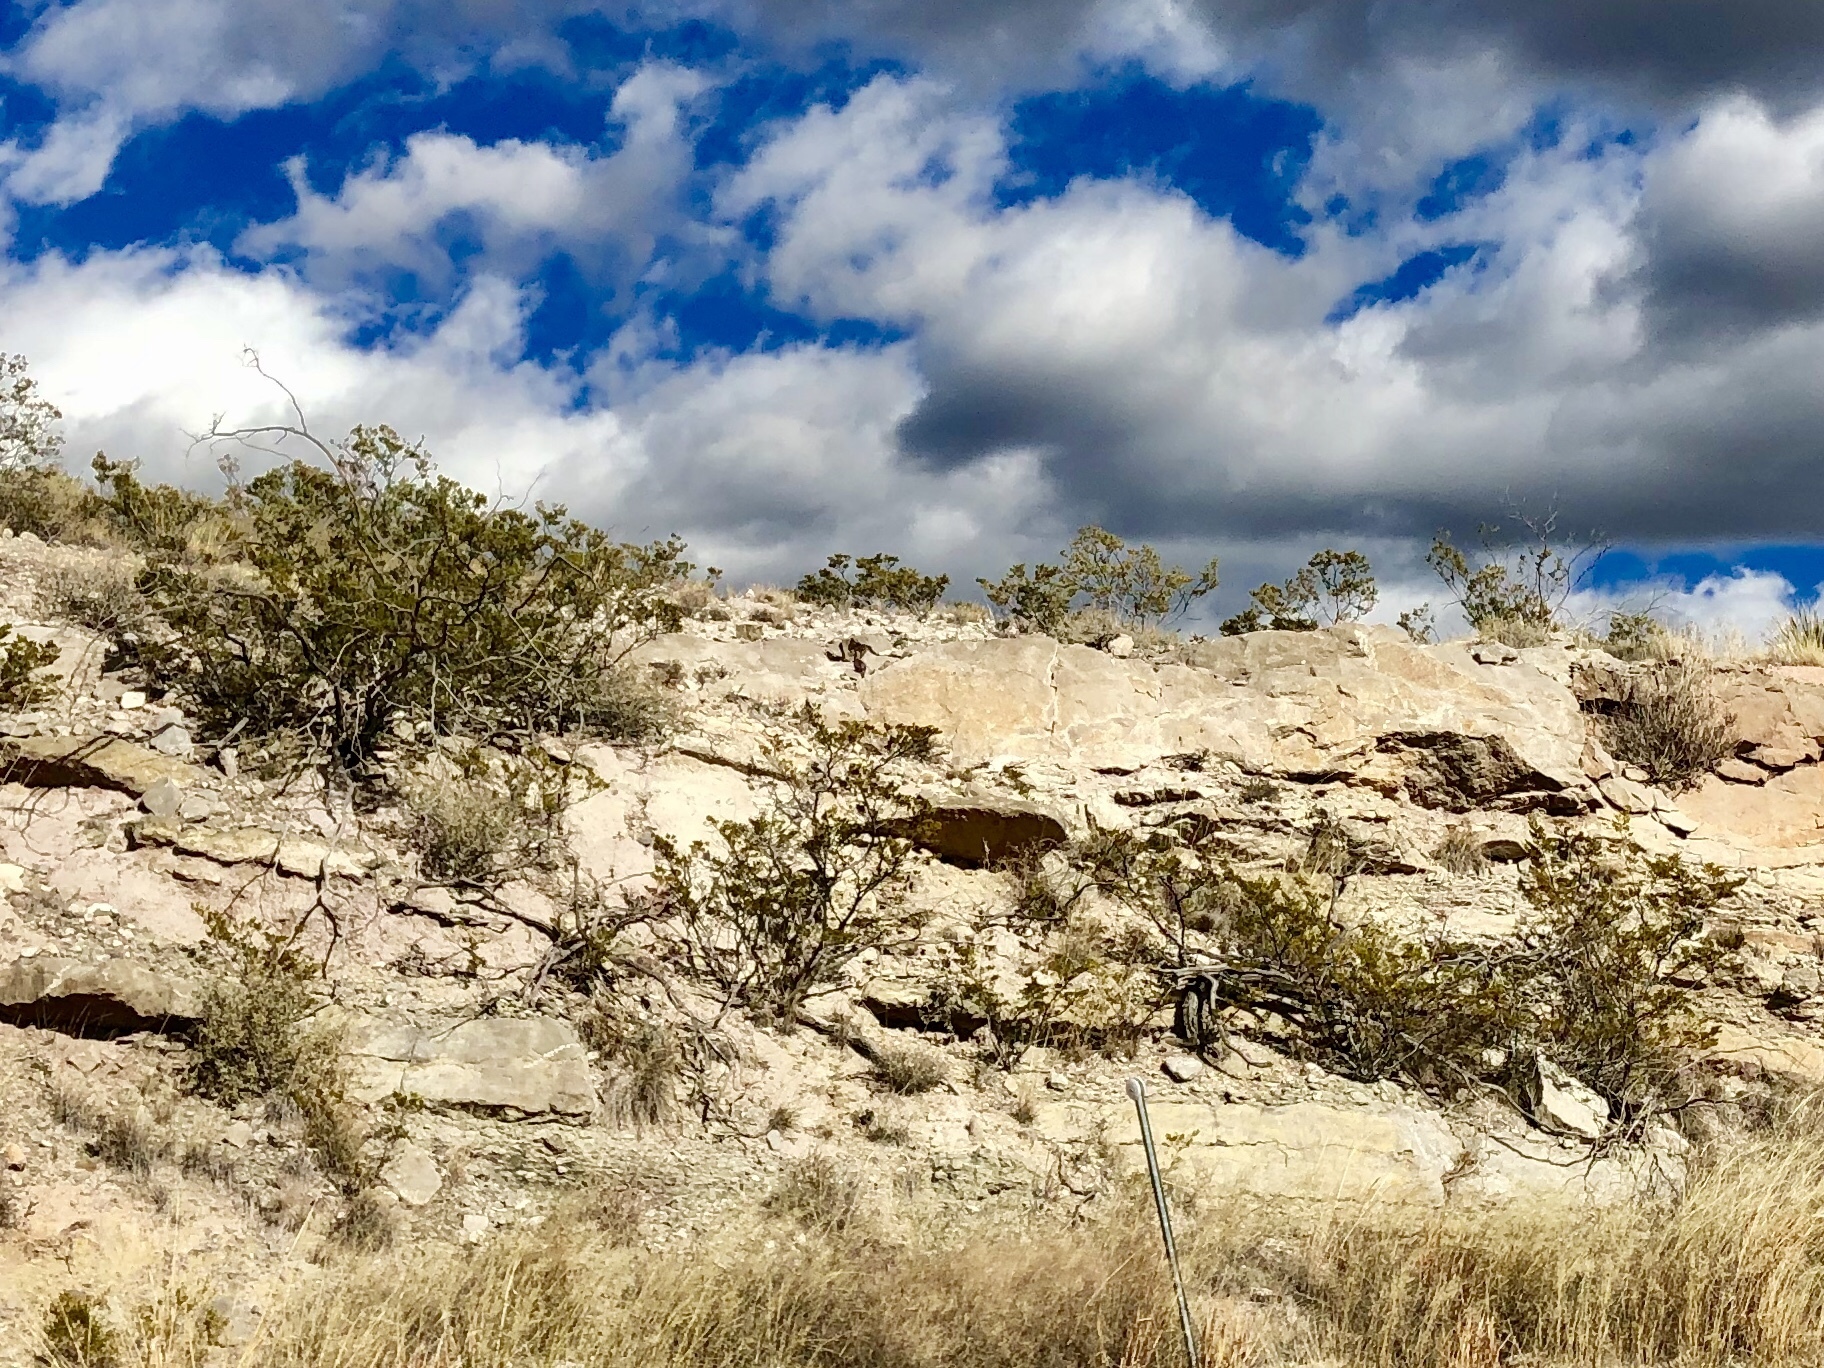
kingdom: Plantae
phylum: Tracheophyta
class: Magnoliopsida
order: Zygophyllales
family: Zygophyllaceae
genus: Larrea
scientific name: Larrea tridentata
